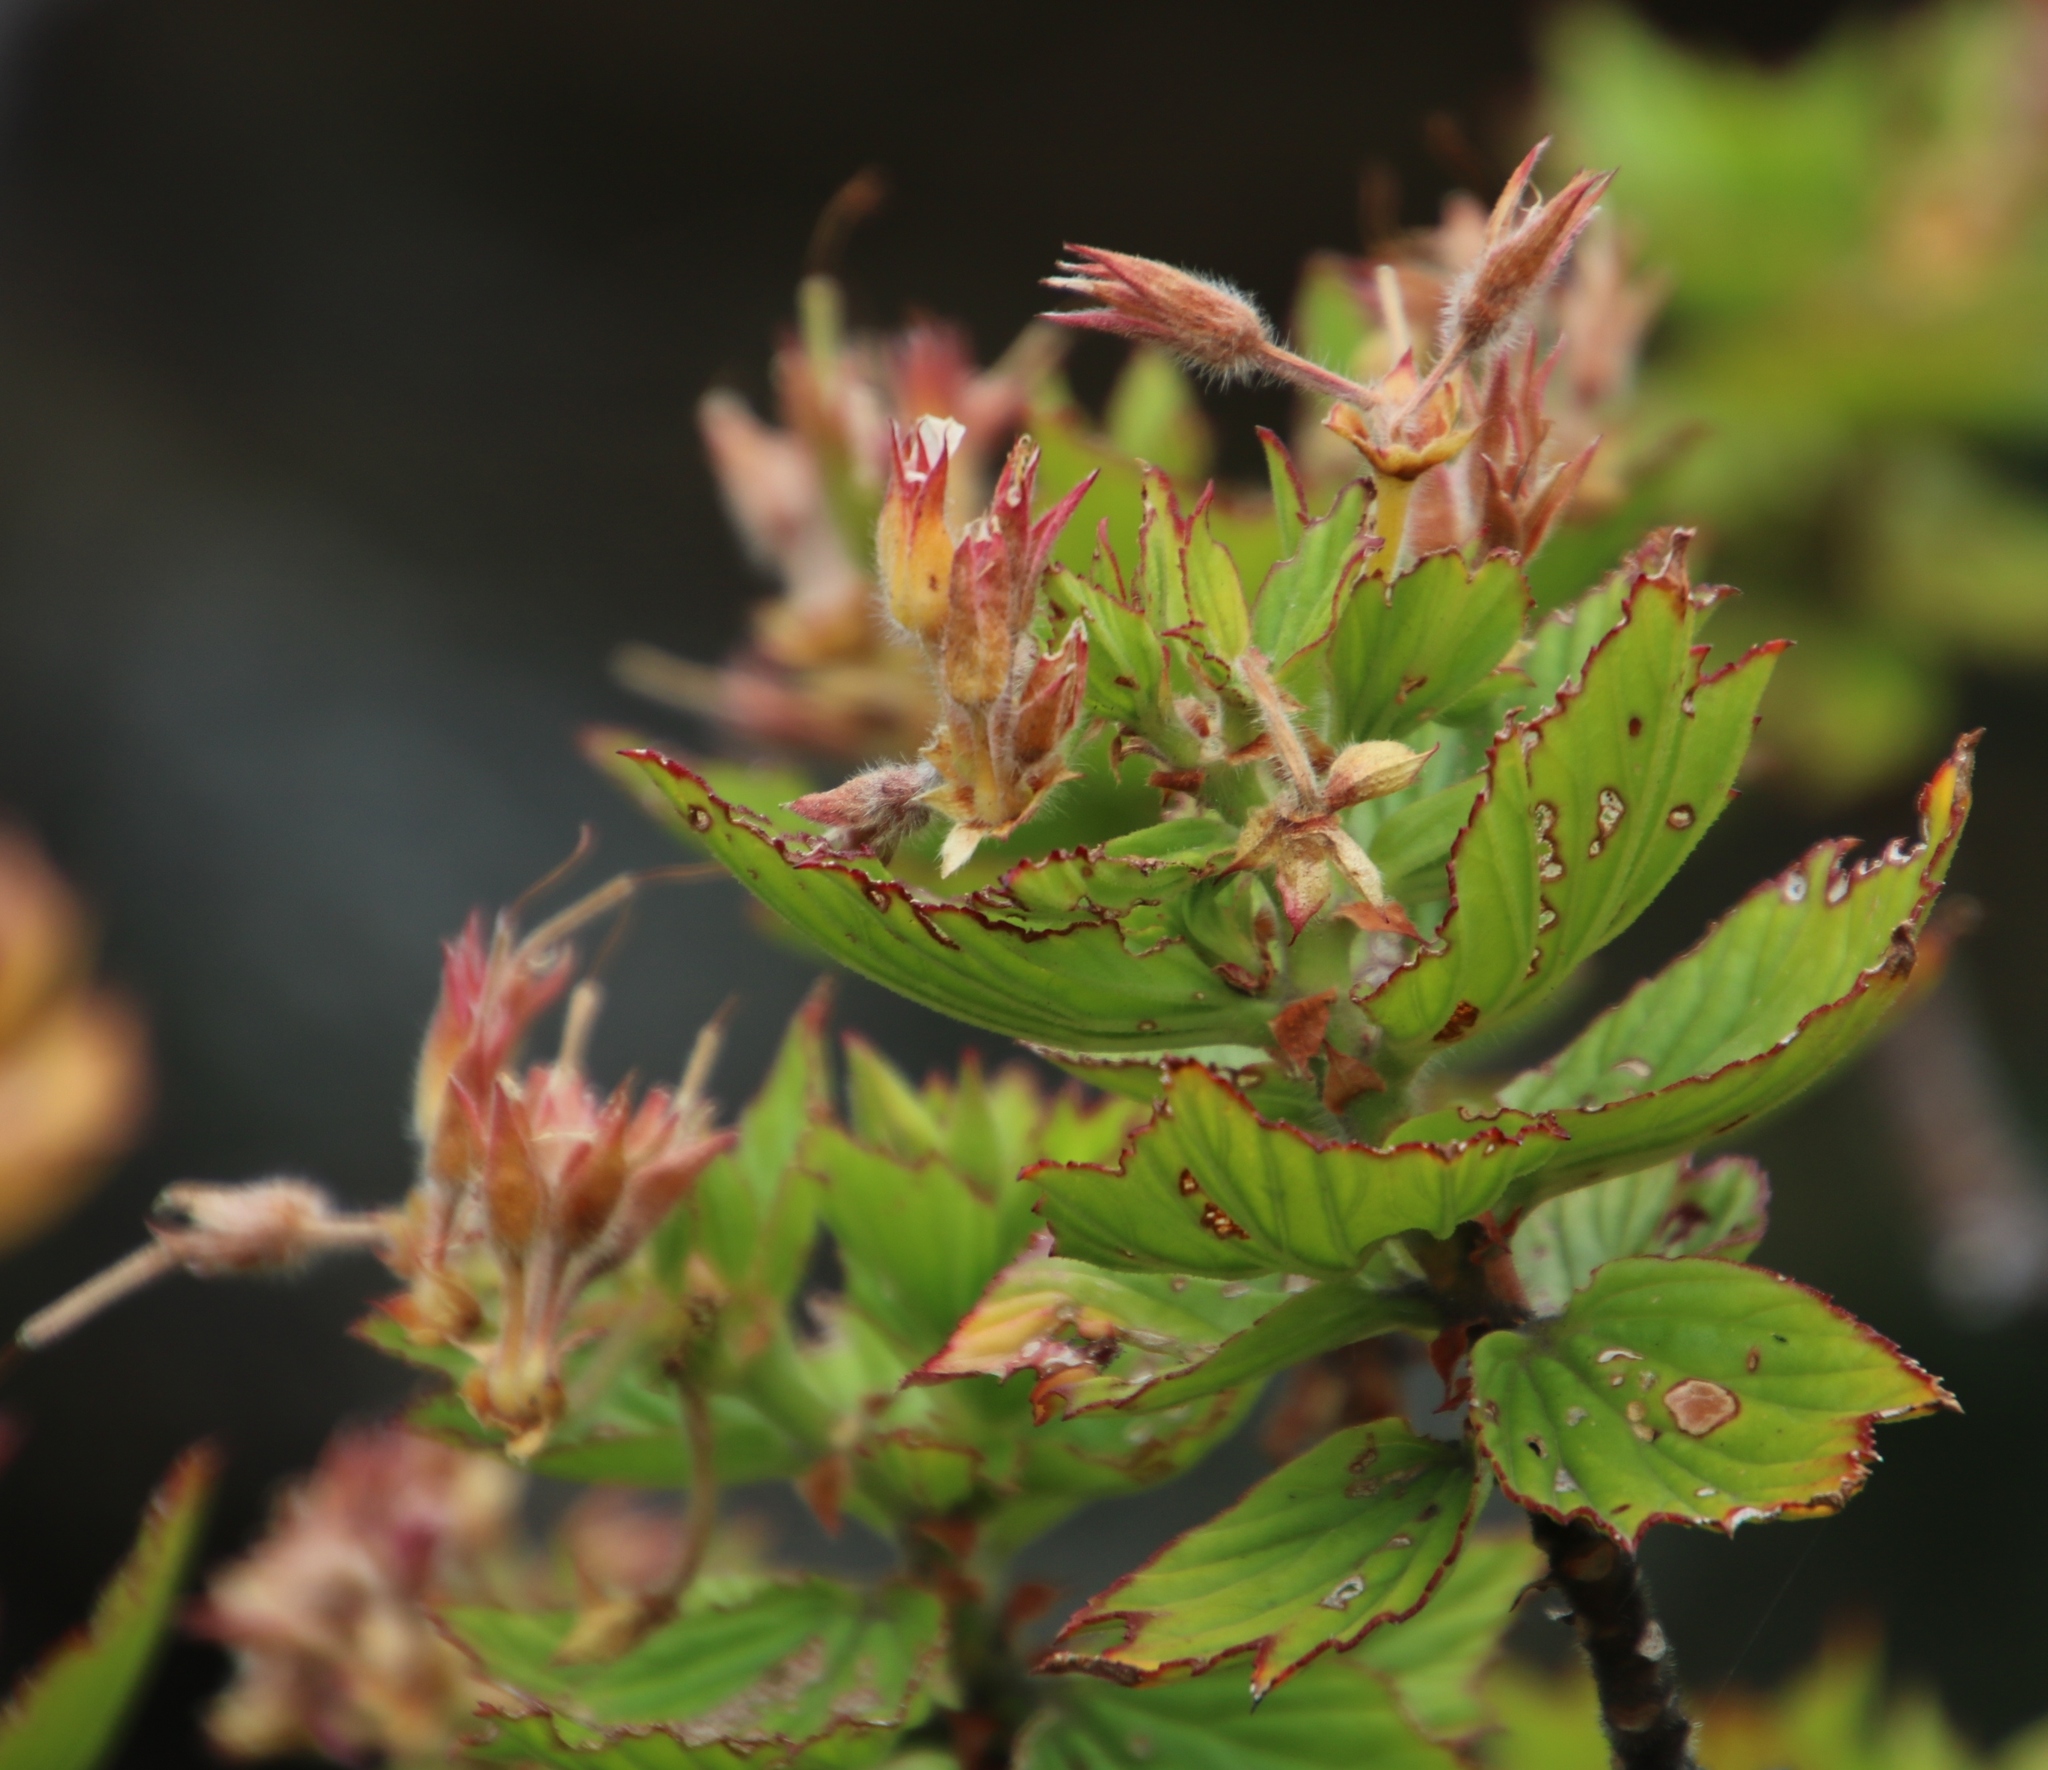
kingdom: Plantae
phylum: Tracheophyta
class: Magnoliopsida
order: Geraniales
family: Geraniaceae
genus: Pelargonium
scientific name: Pelargonium cucullatum
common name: Tree pelargonium
